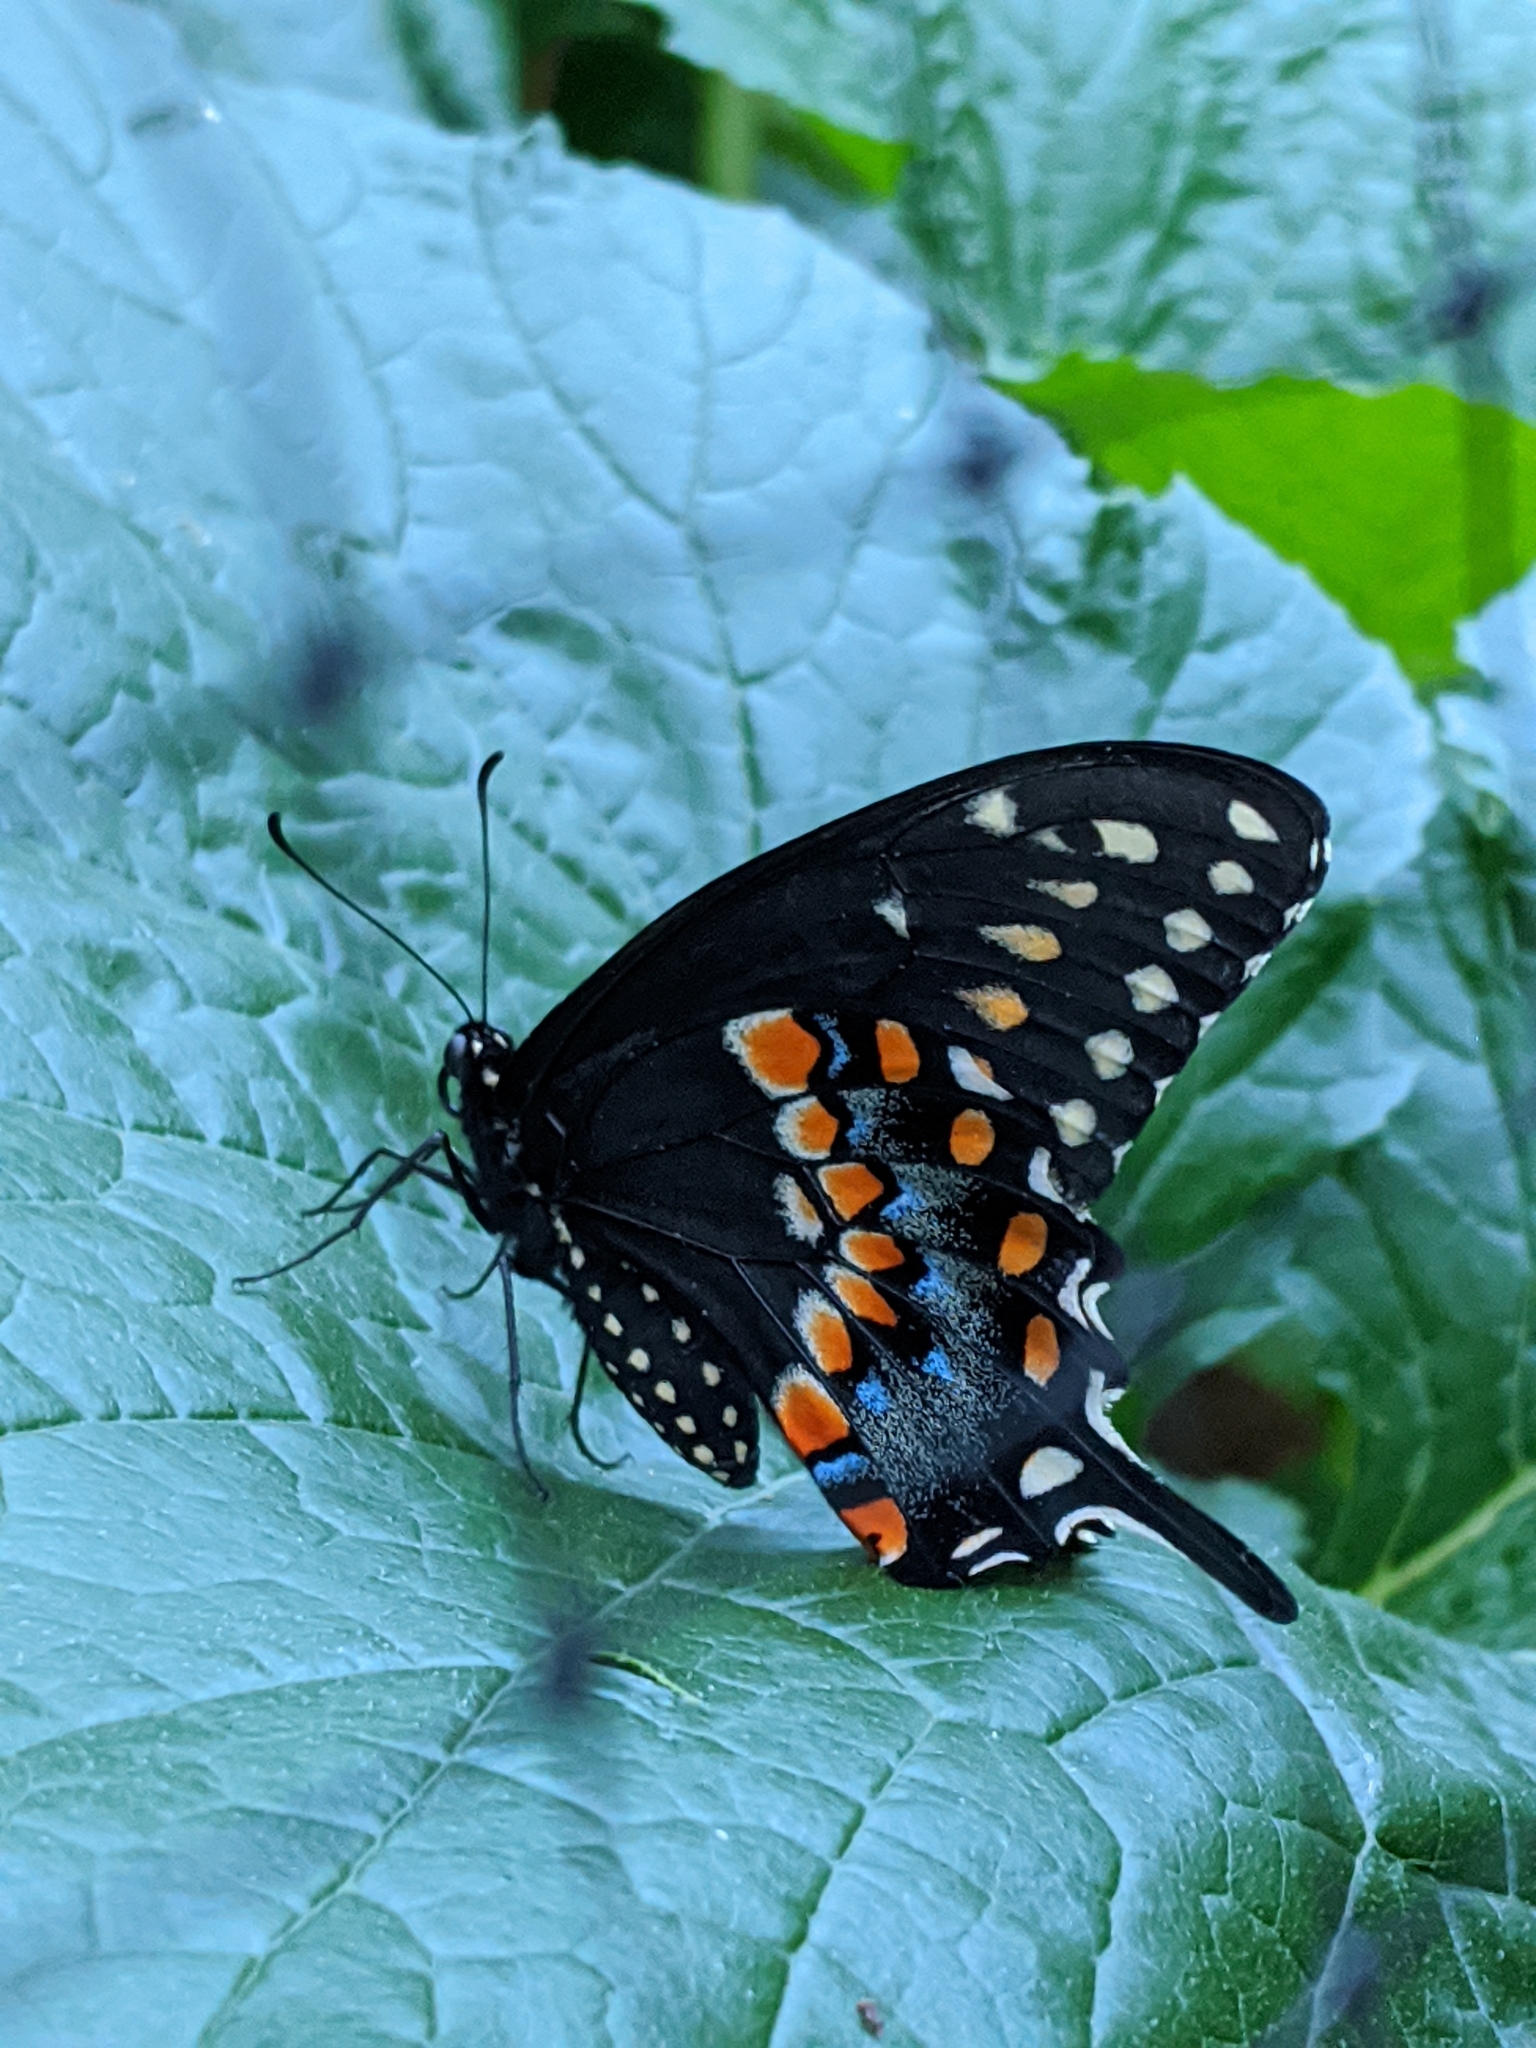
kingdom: Animalia
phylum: Arthropoda
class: Insecta
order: Lepidoptera
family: Papilionidae
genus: Papilio
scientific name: Papilio polyxenes
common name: Black swallowtail
